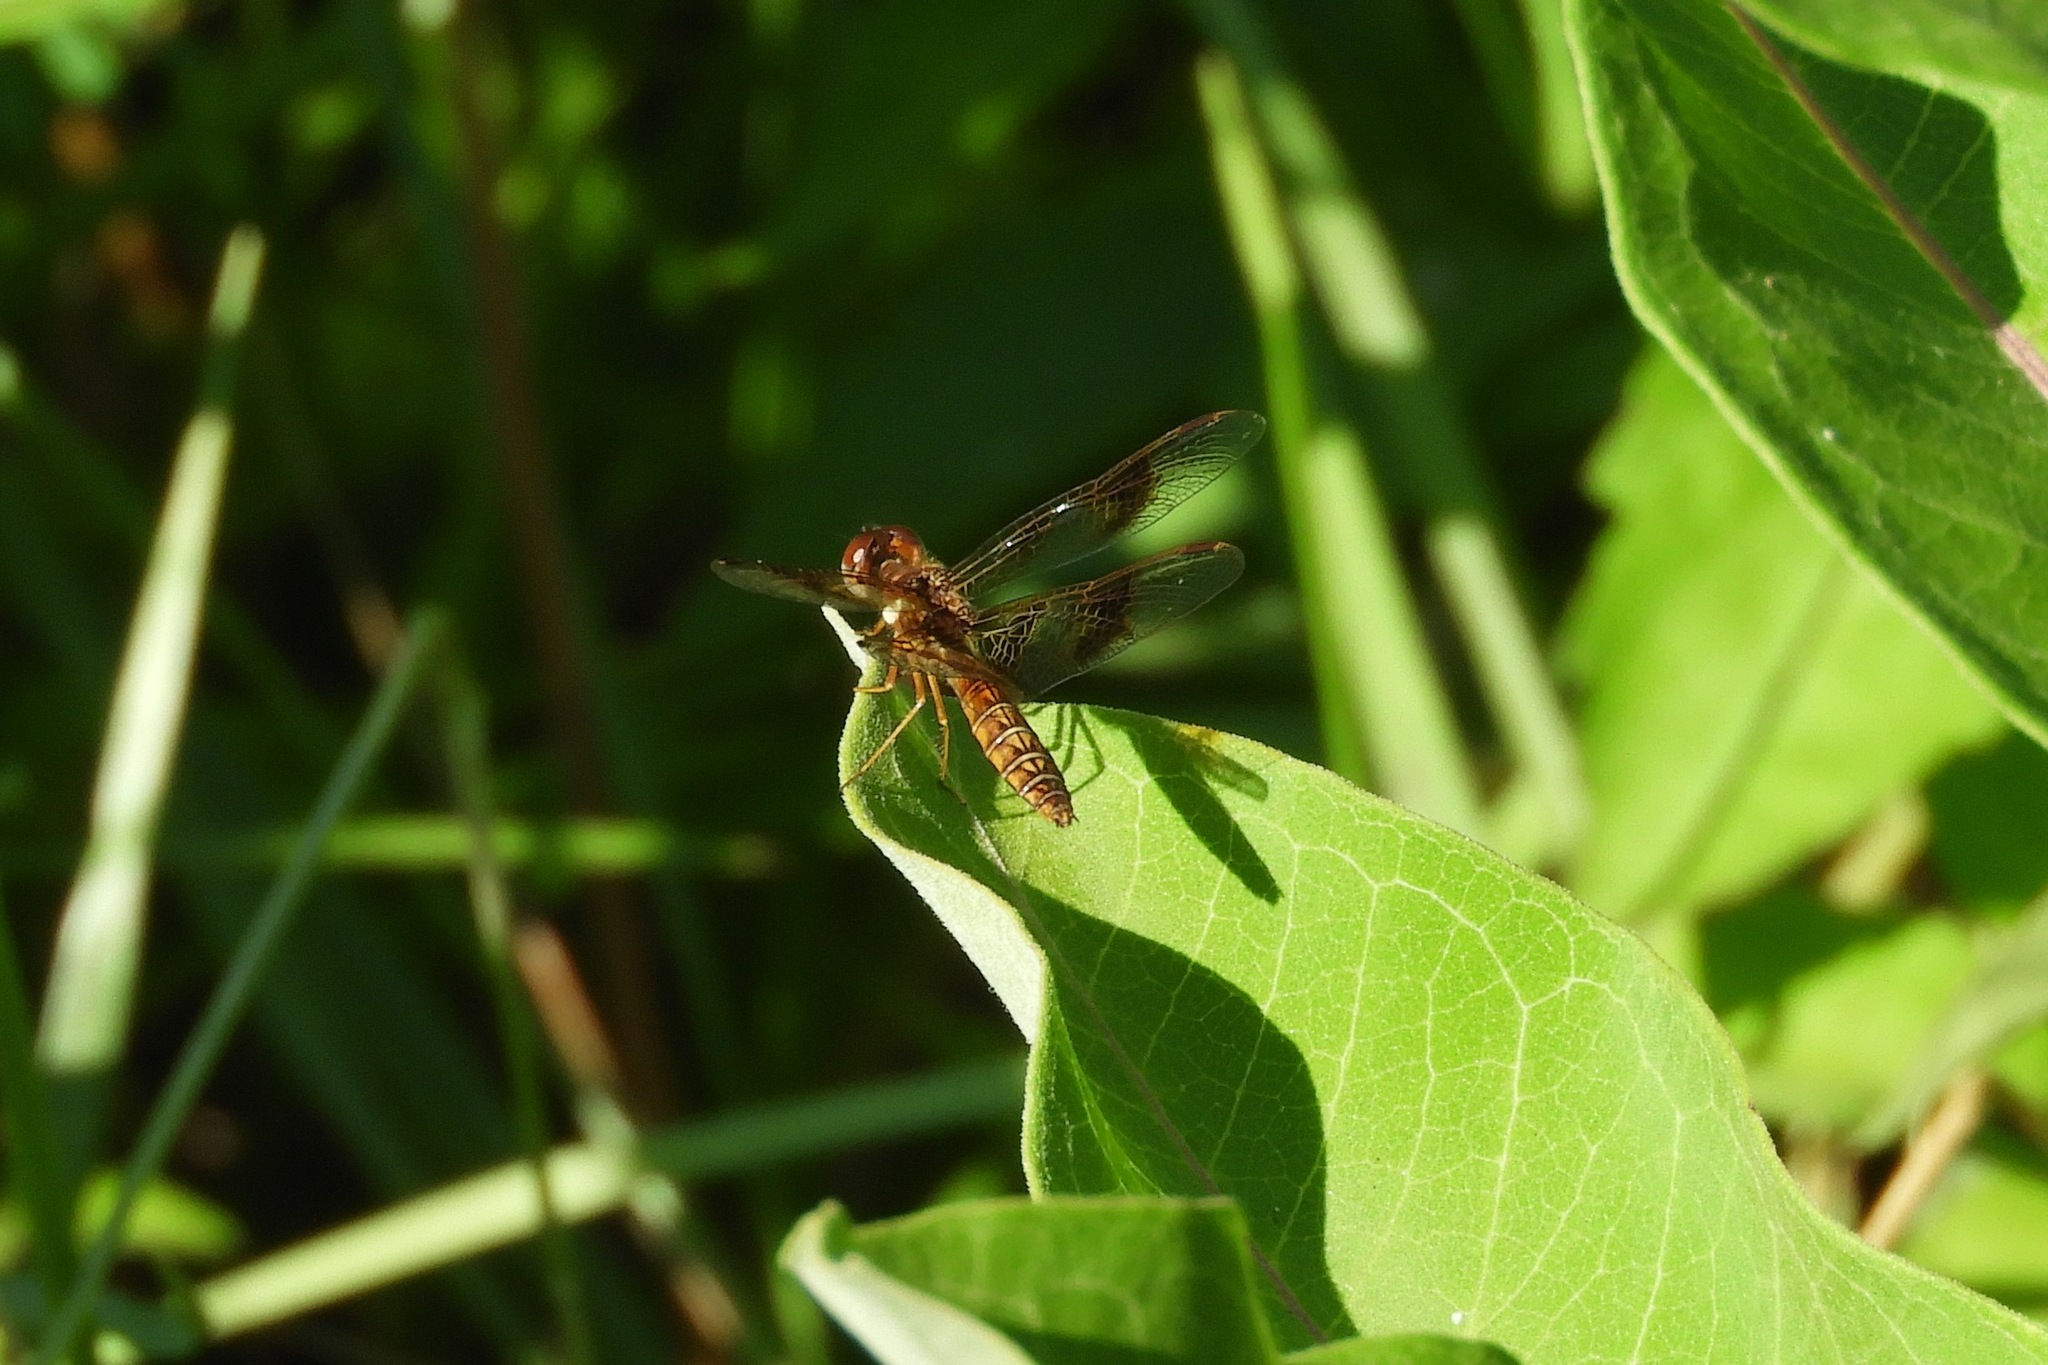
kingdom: Animalia
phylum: Arthropoda
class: Insecta
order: Odonata
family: Libellulidae
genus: Perithemis
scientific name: Perithemis tenera
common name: Eastern amberwing
